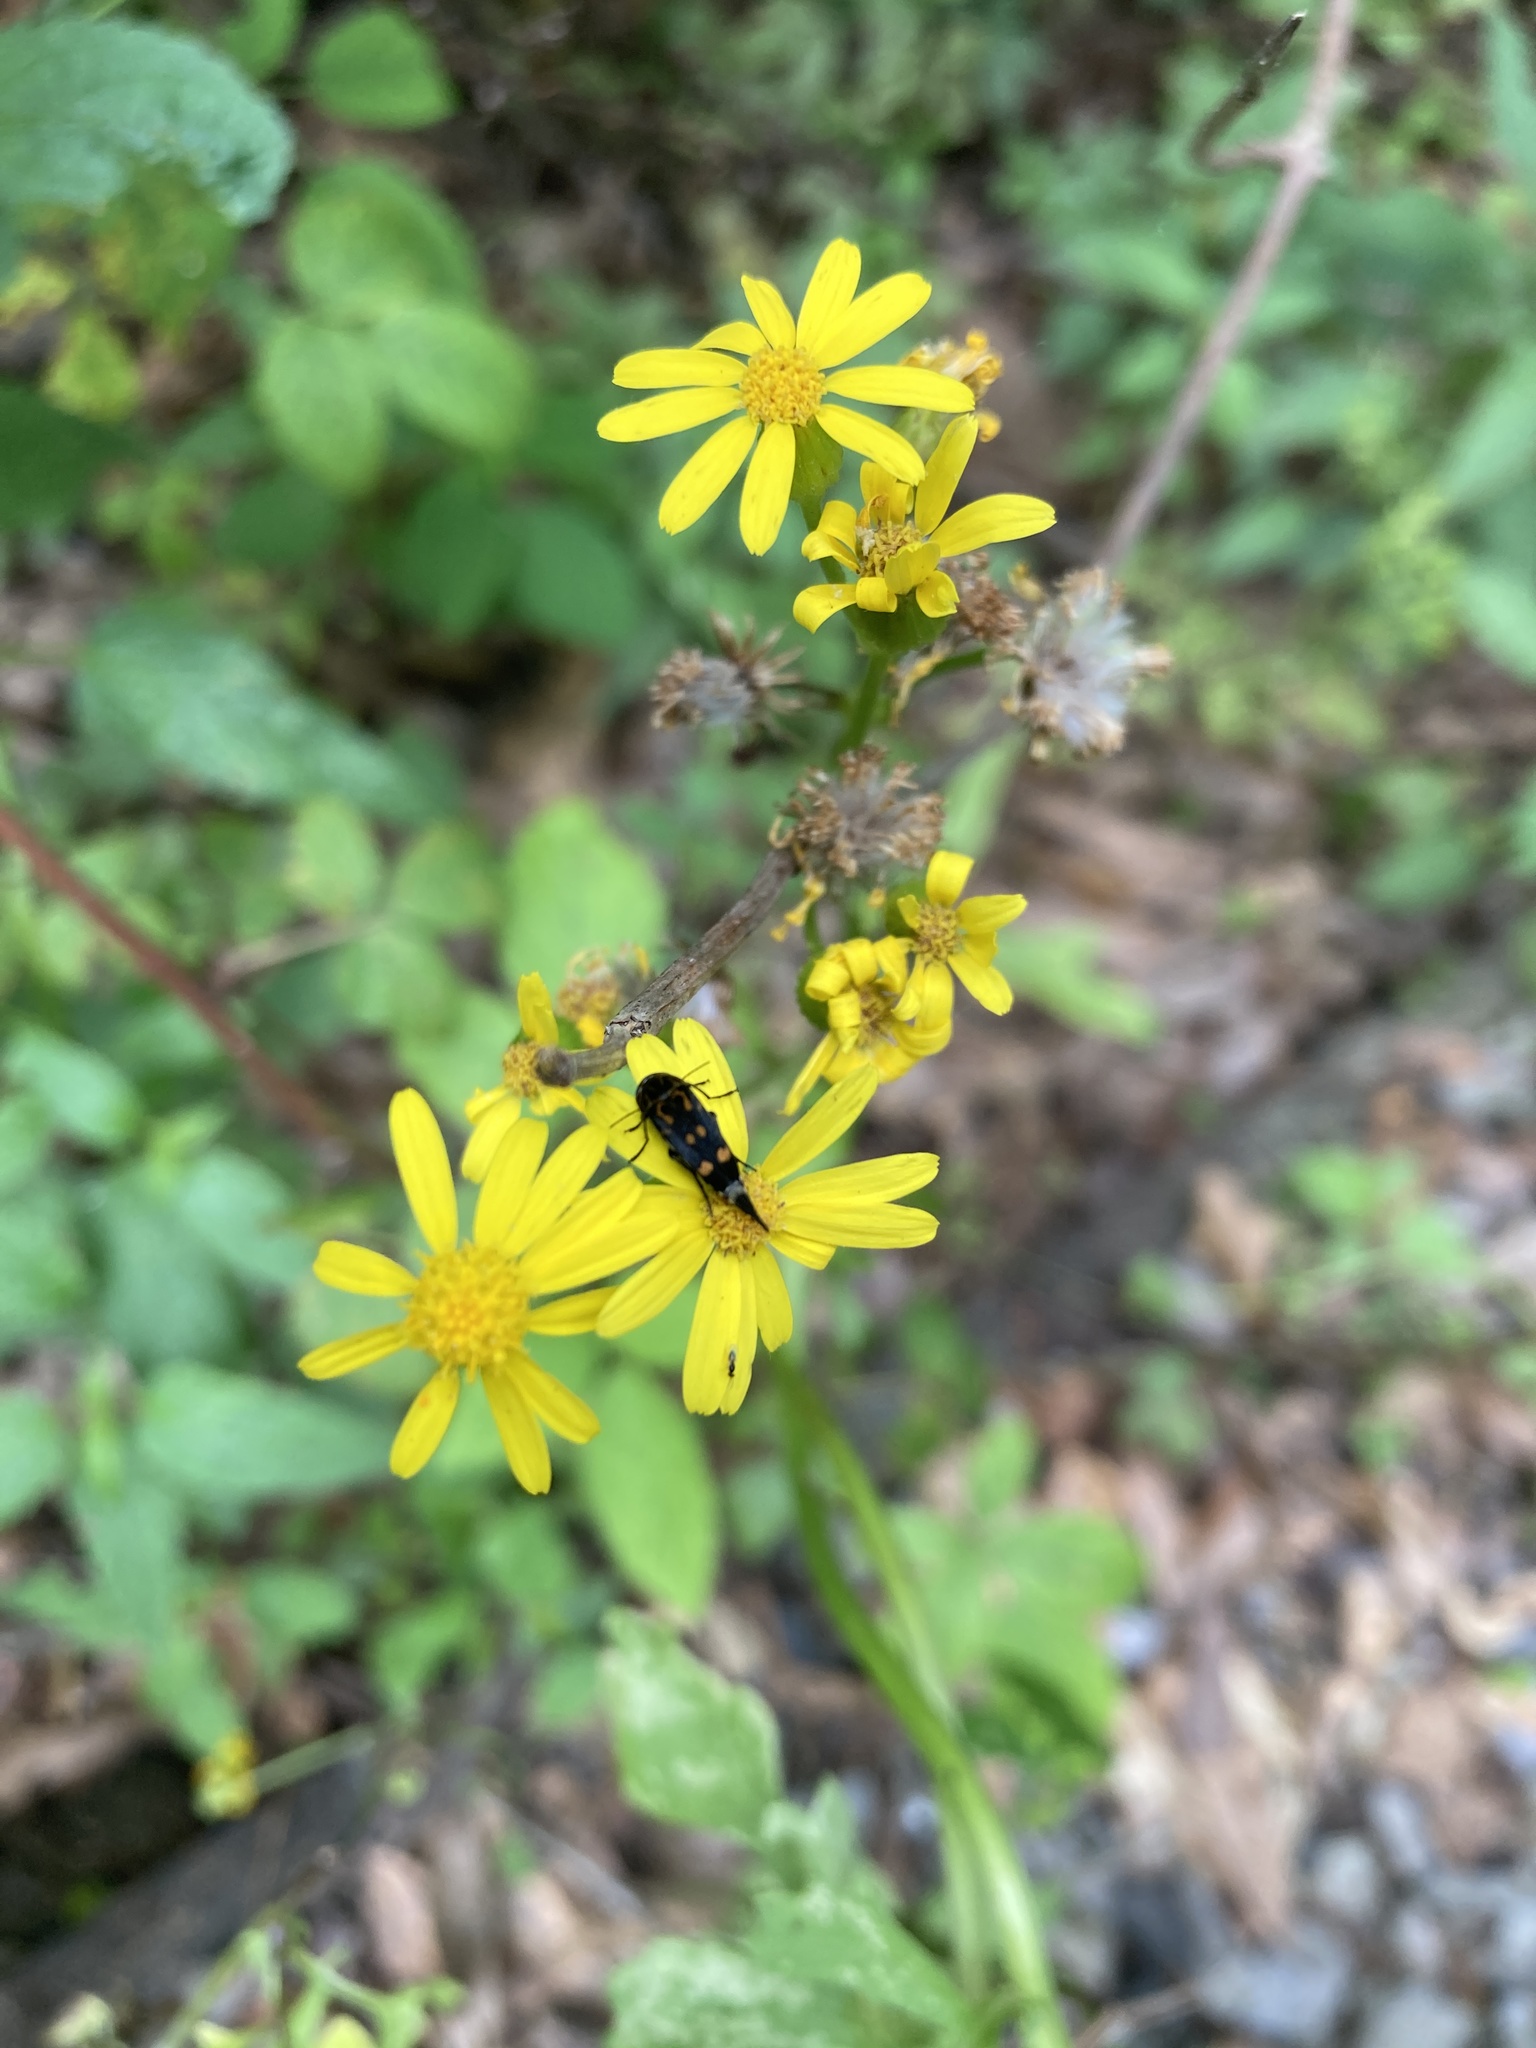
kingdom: Plantae
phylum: Tracheophyta
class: Magnoliopsida
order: Asterales
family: Asteraceae
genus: Packera
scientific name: Packera glabella
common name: Butterweed
